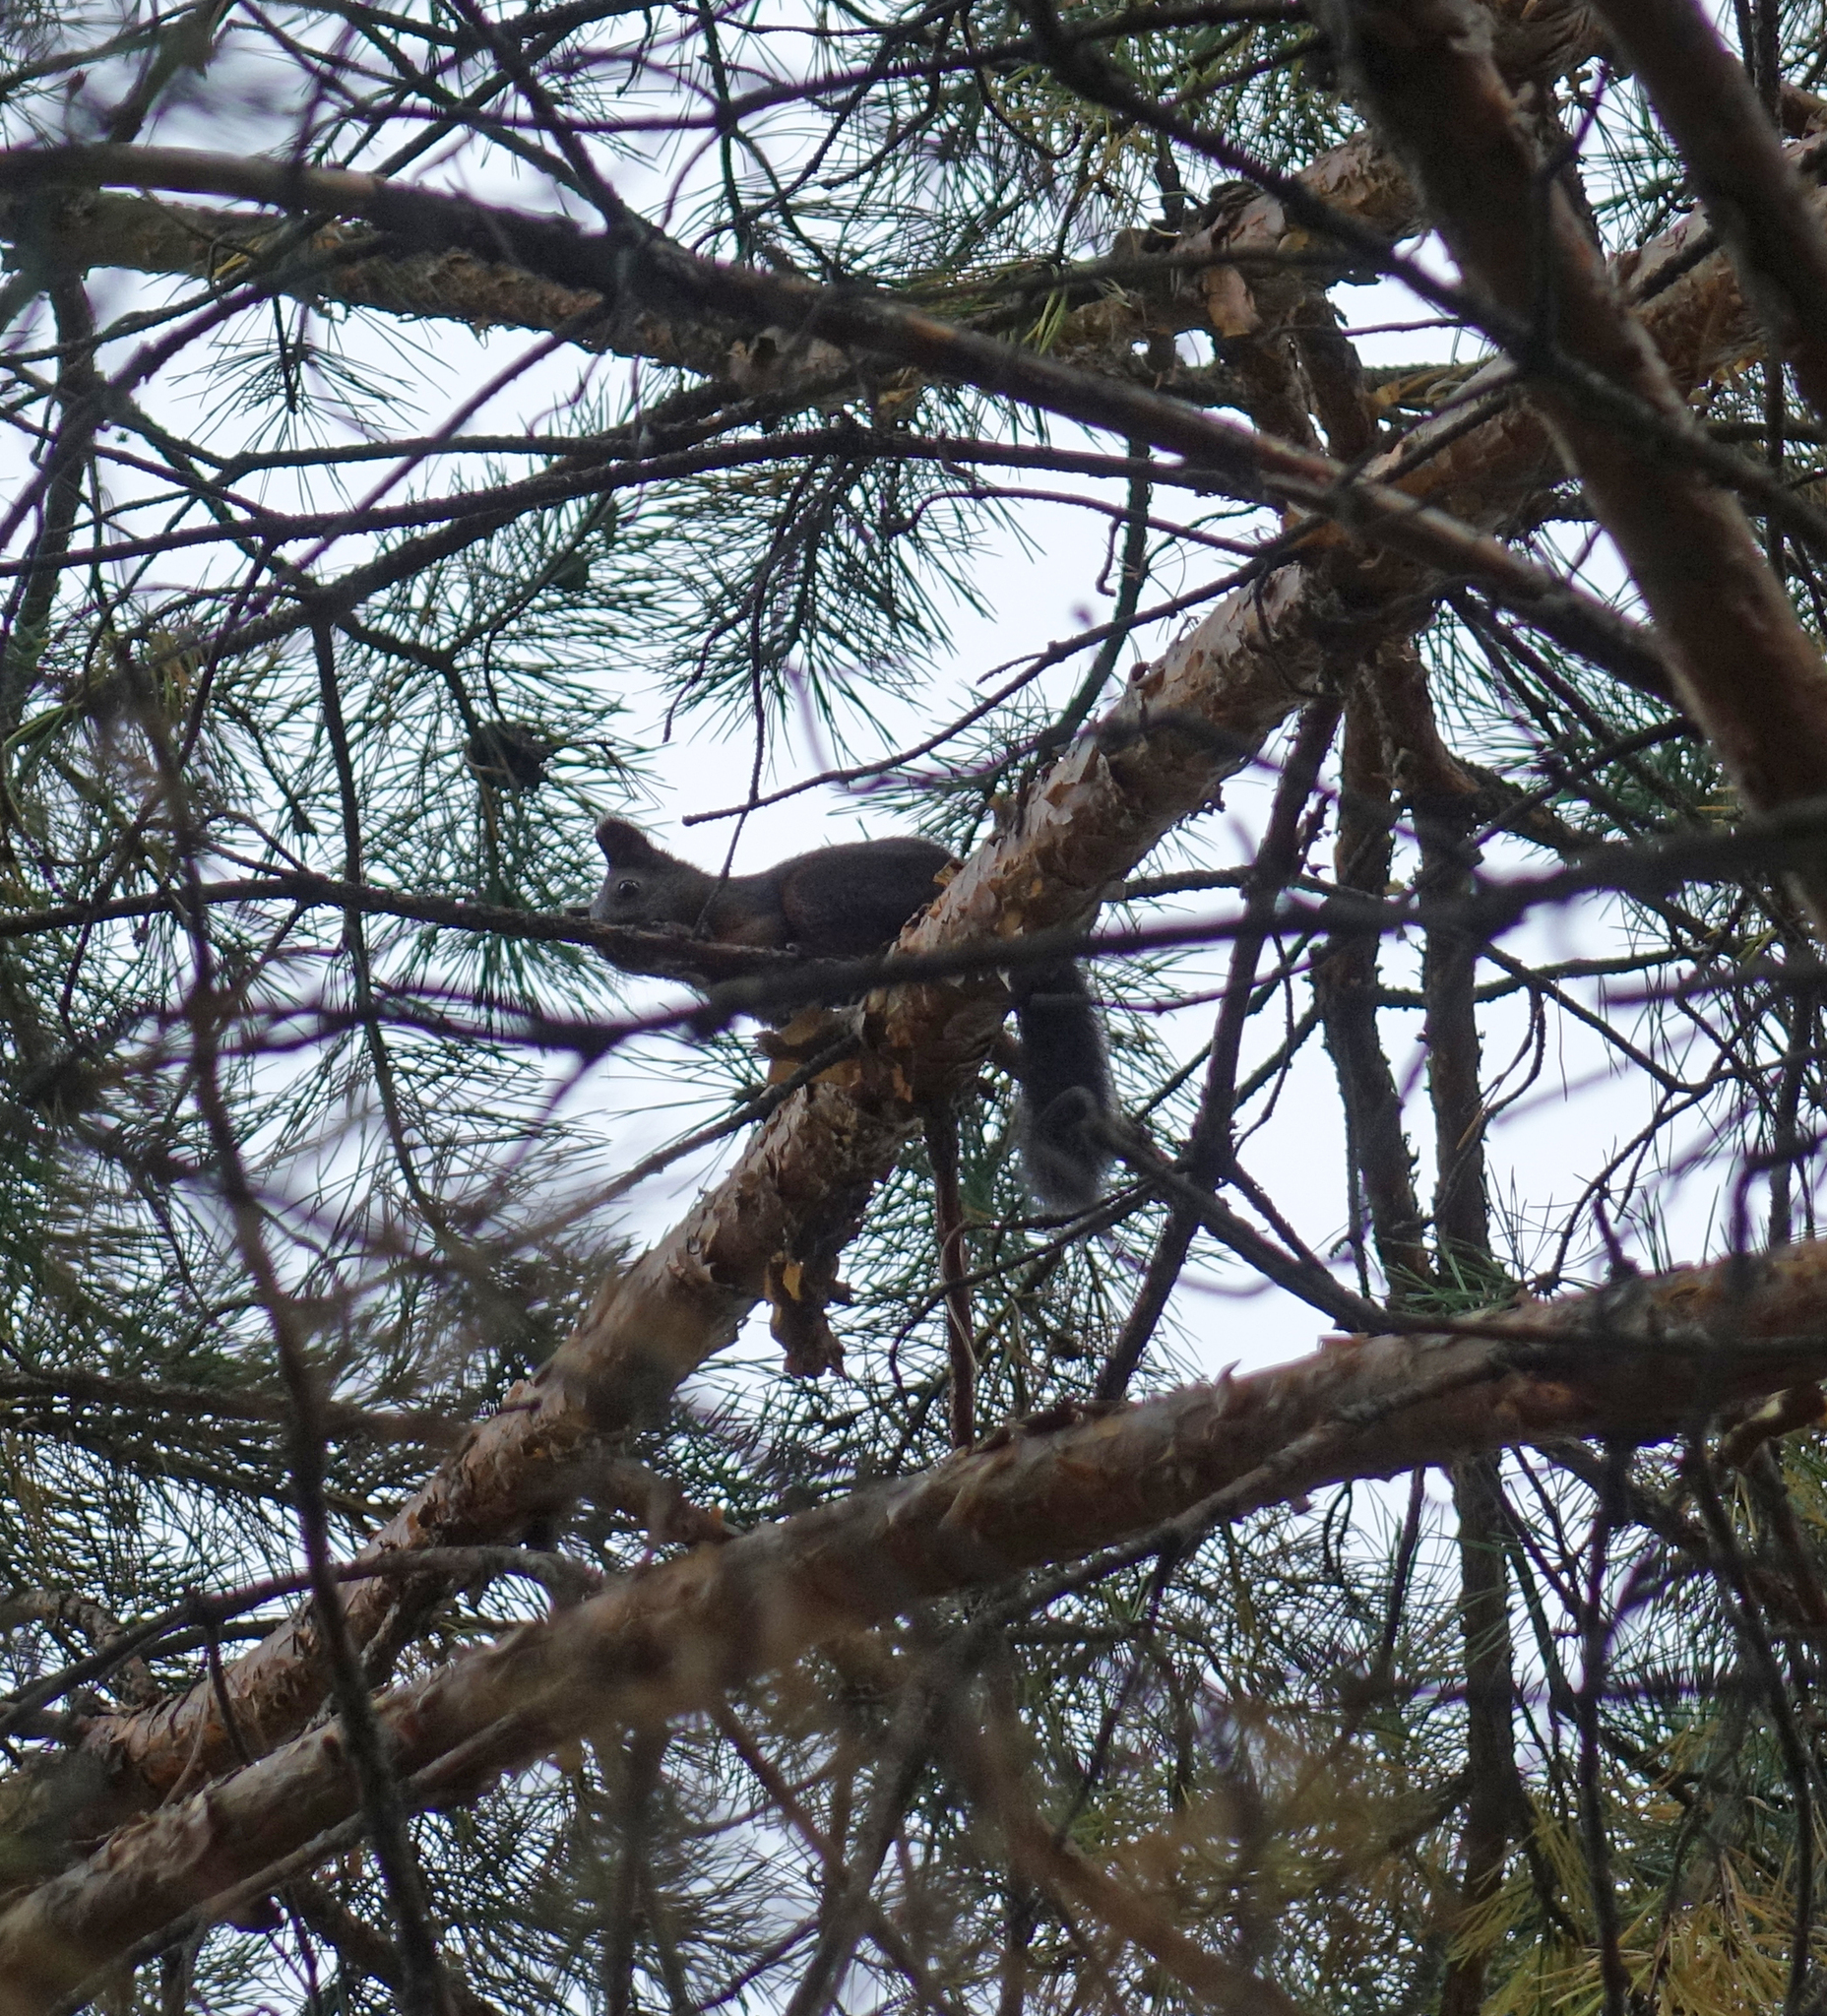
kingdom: Animalia
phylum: Chordata
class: Mammalia
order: Rodentia
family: Sciuridae
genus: Sciurus
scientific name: Sciurus vulgaris
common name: Eurasian red squirrel
